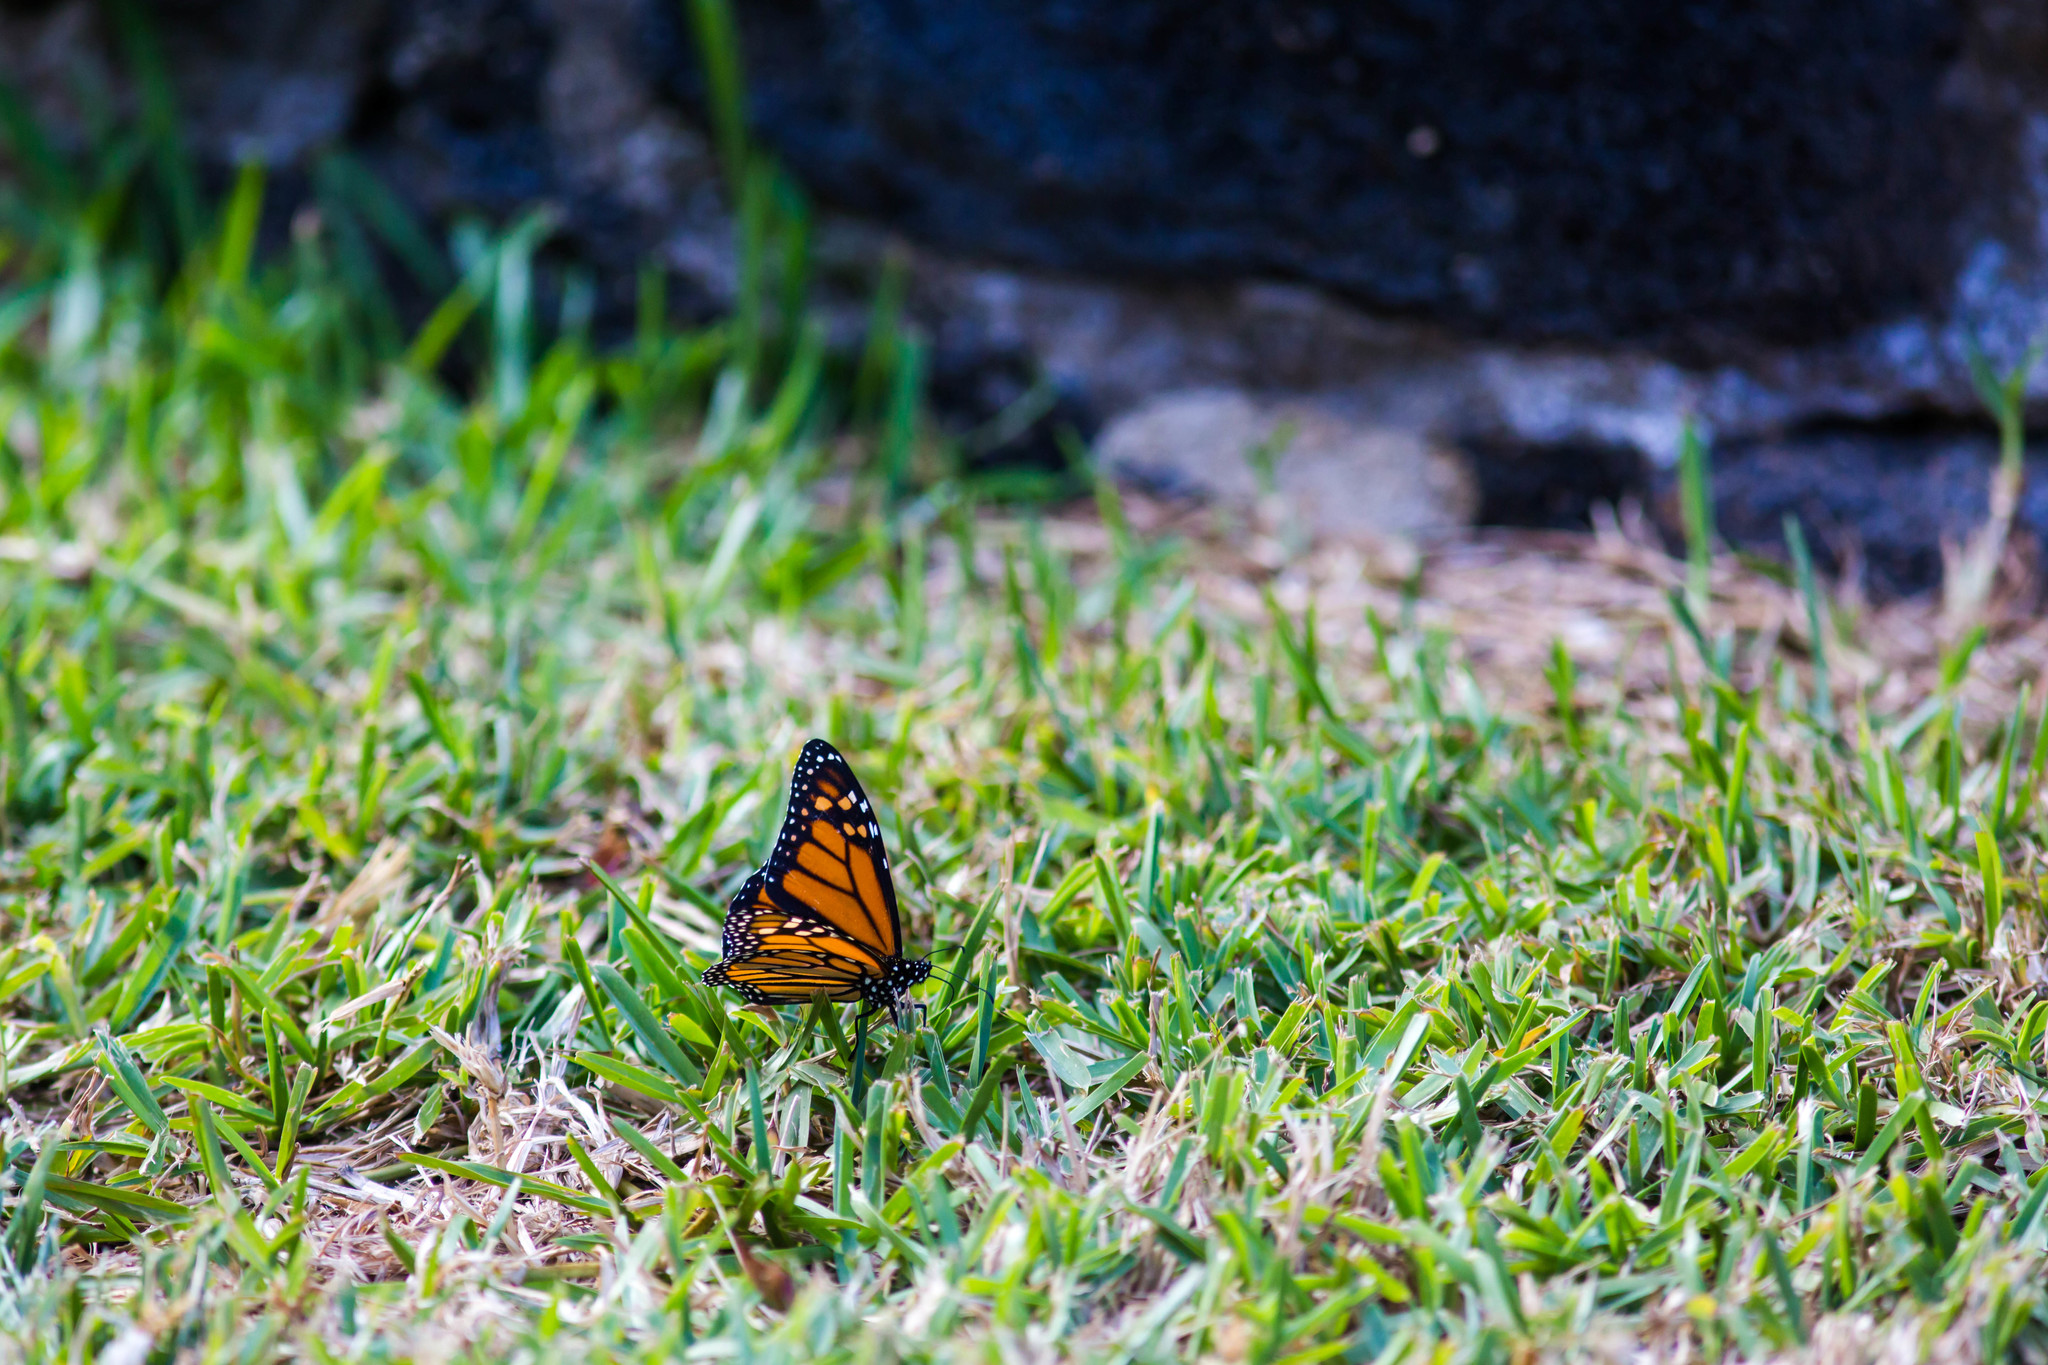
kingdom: Animalia
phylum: Arthropoda
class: Insecta
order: Lepidoptera
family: Nymphalidae
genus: Danaus
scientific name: Danaus plexippus
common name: Monarch
